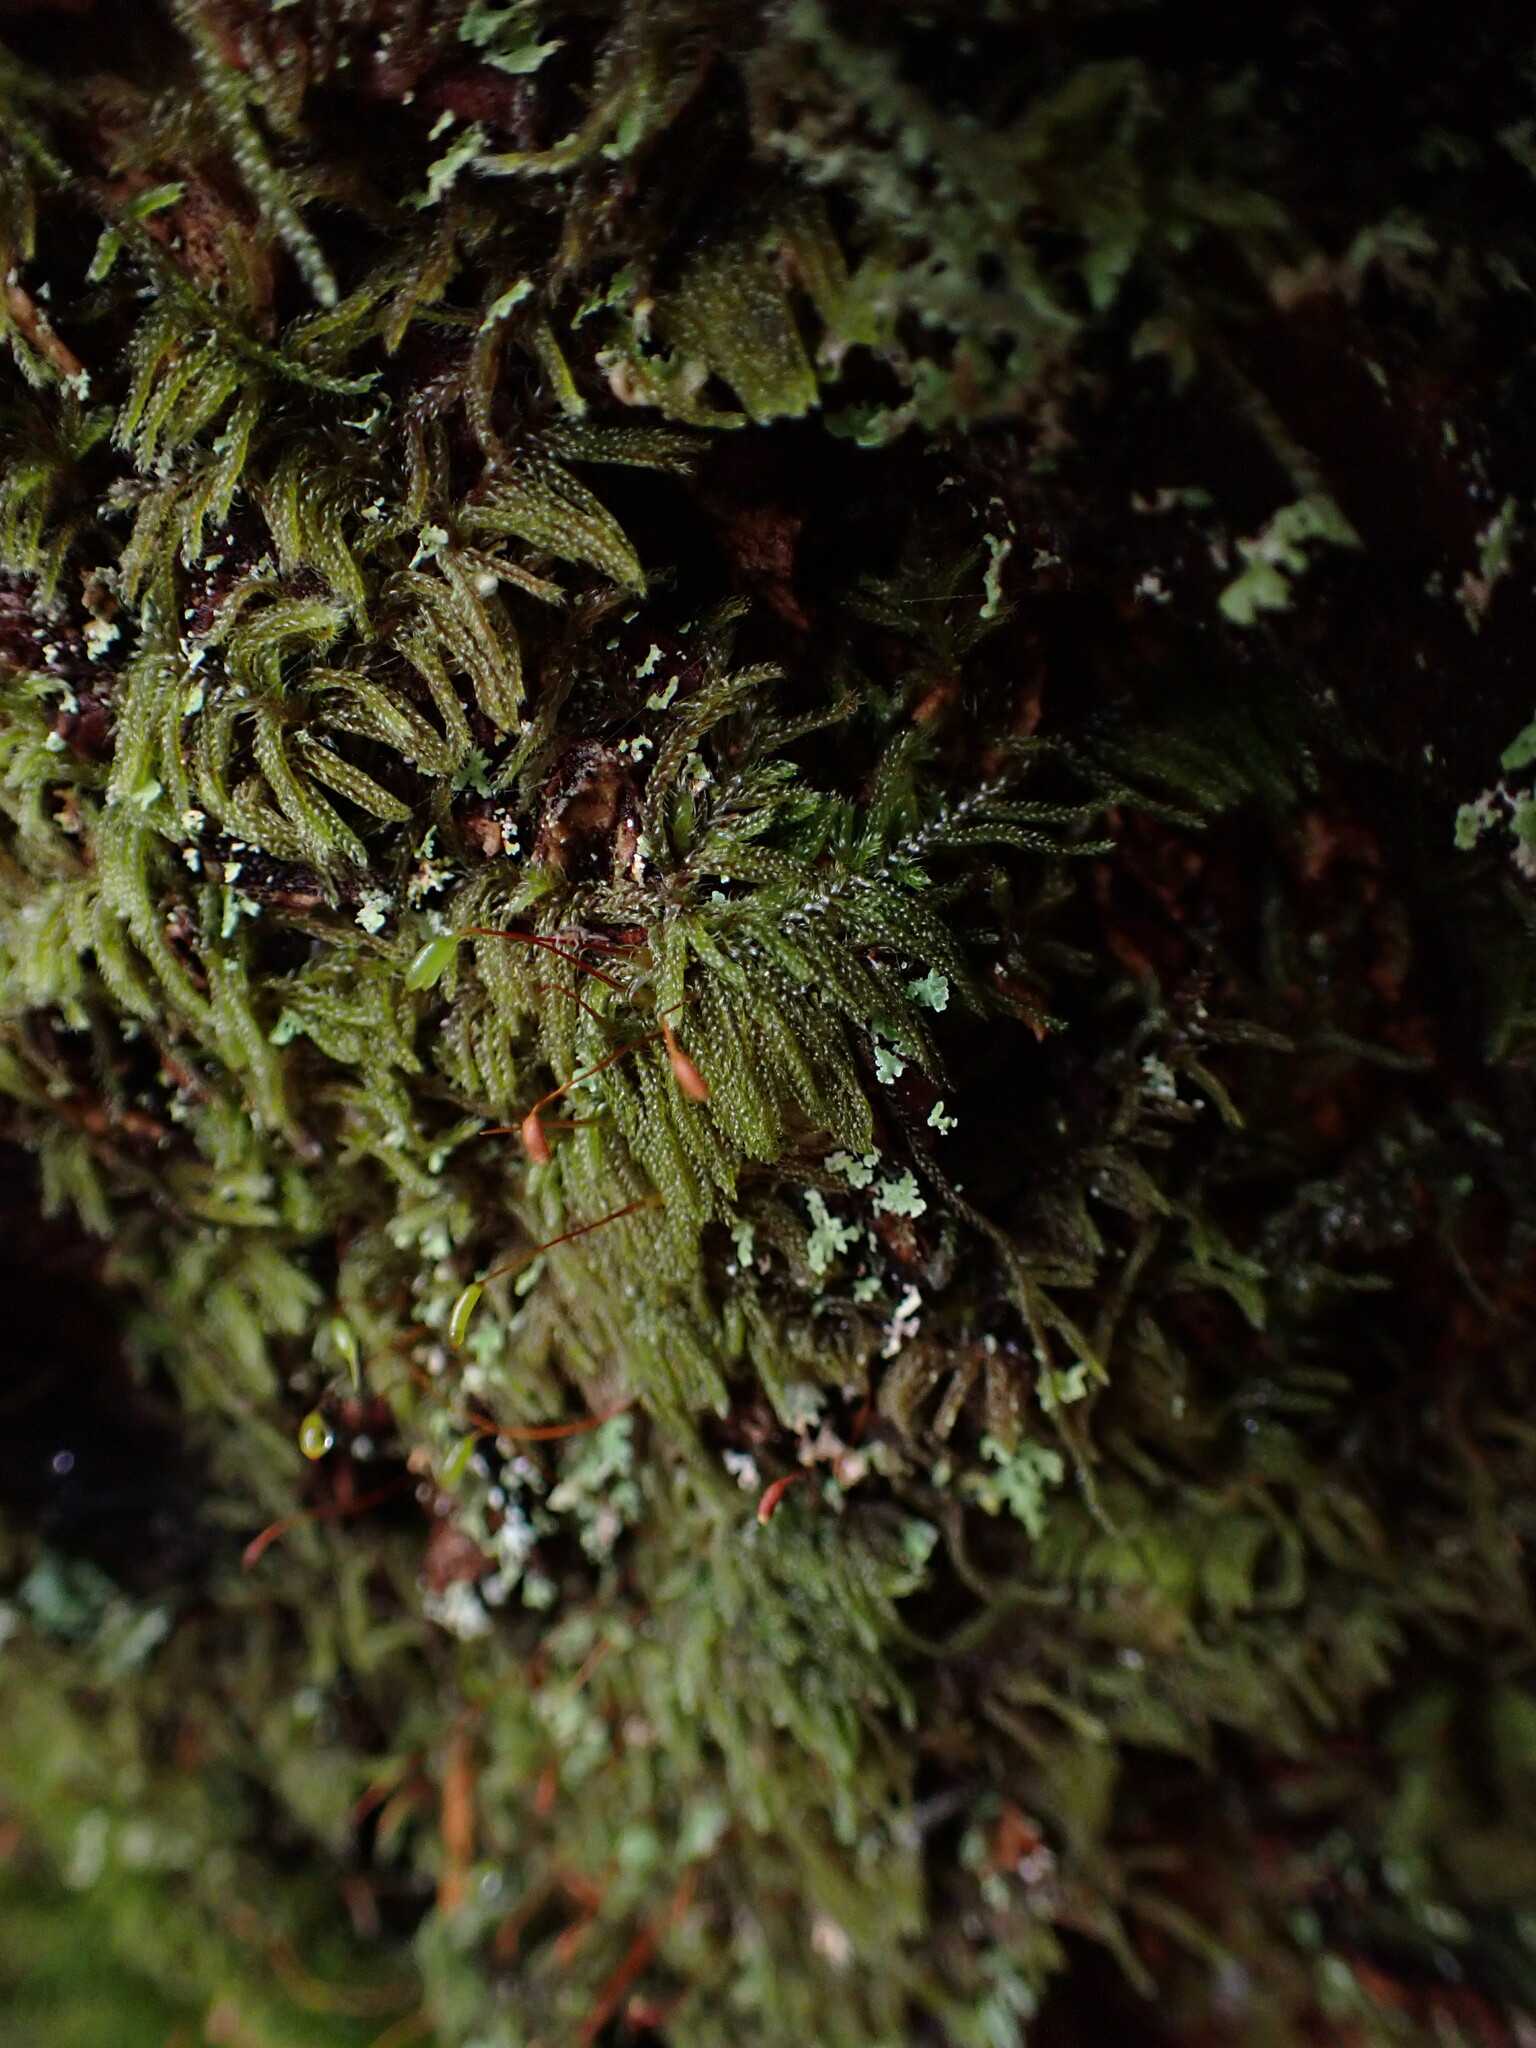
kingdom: Plantae
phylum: Bryophyta
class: Bryopsida
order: Hypnales
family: Pylaisiadelphaceae
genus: Trochophyllohypnum
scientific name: Trochophyllohypnum circinale
